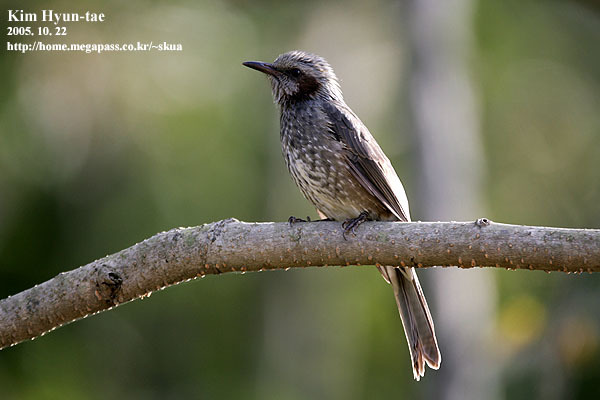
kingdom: Animalia
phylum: Chordata
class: Aves
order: Passeriformes
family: Pycnonotidae
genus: Hypsipetes
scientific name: Hypsipetes amaurotis
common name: Brown-eared bulbul
